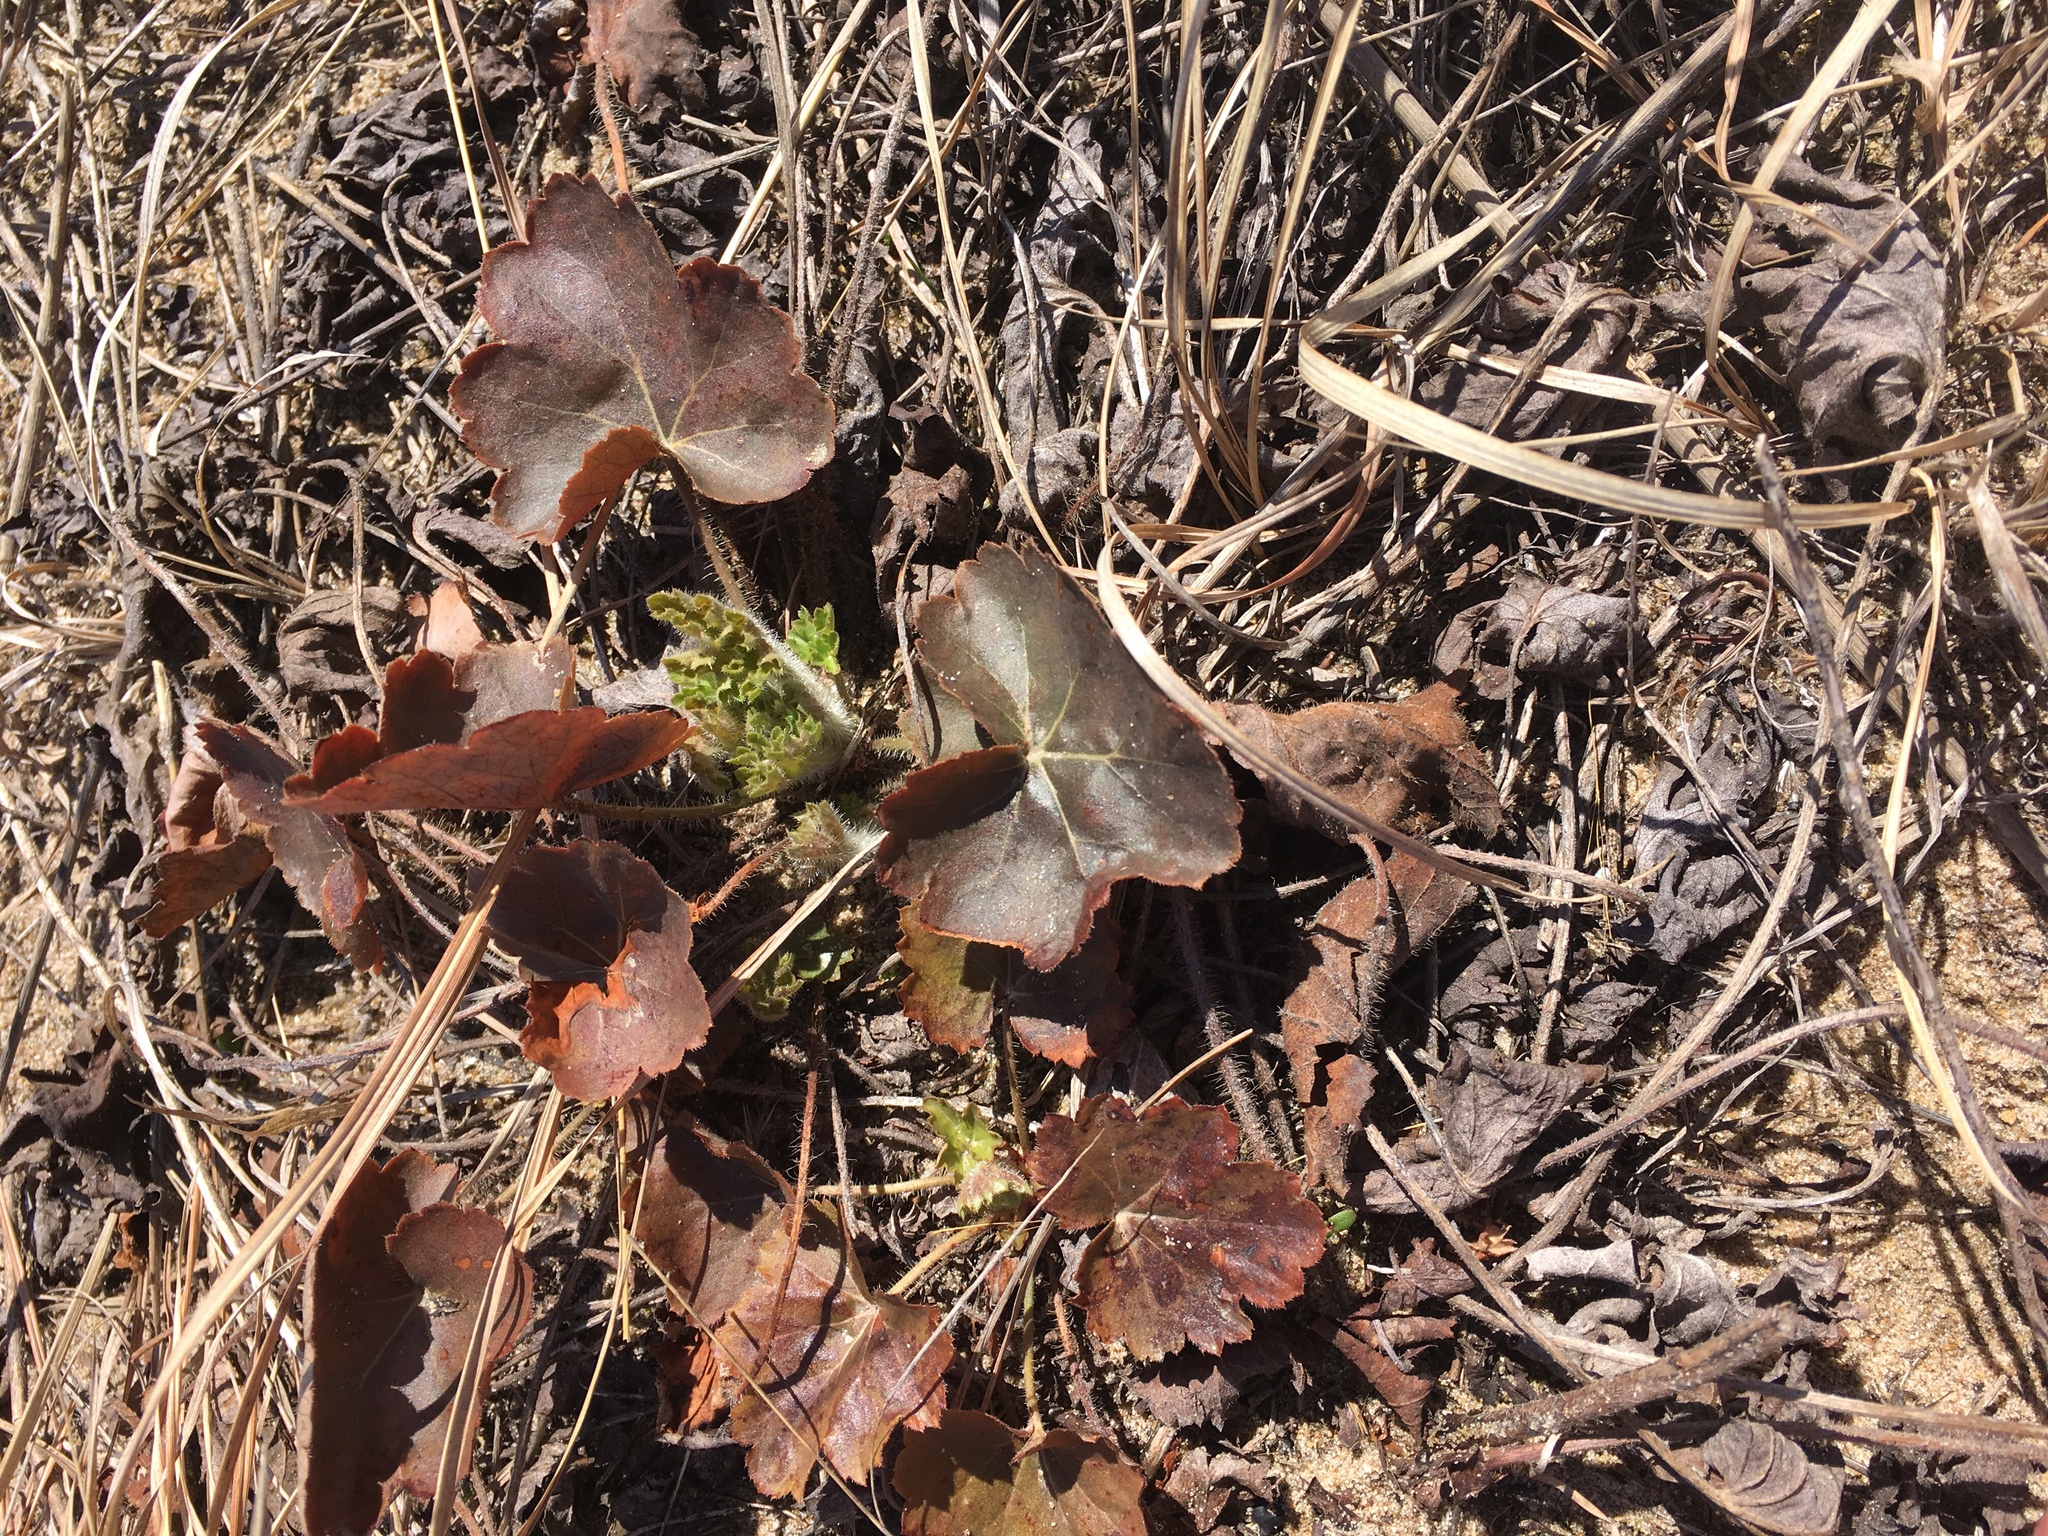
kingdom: Plantae
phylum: Tracheophyta
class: Magnoliopsida
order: Saxifragales
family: Saxifragaceae
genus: Heuchera
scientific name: Heuchera richardsonii
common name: Richardson's alumroot
